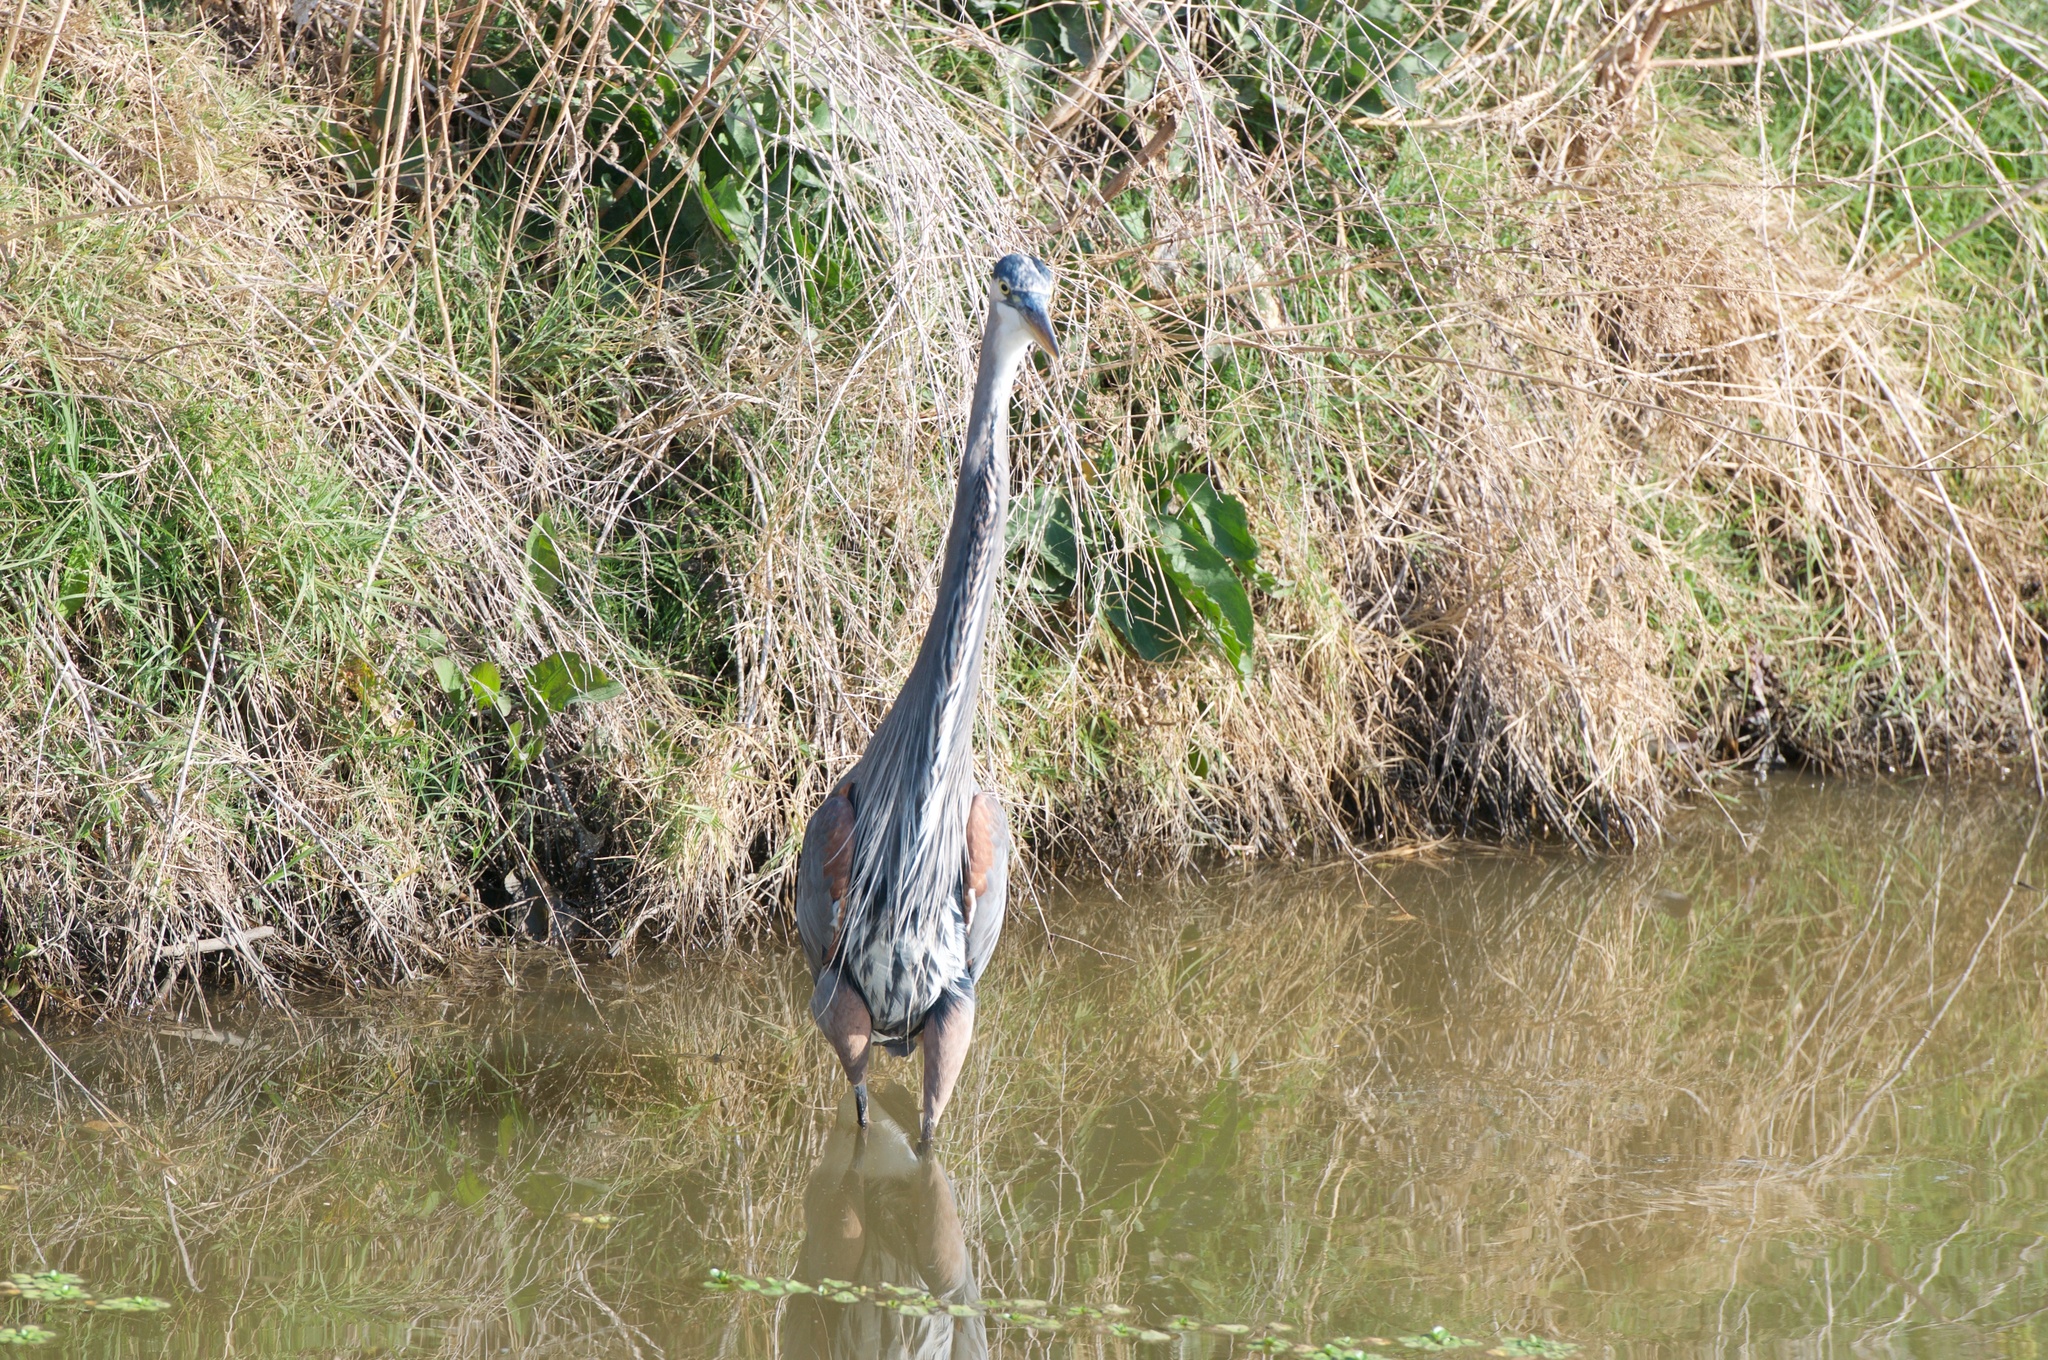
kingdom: Animalia
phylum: Chordata
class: Aves
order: Pelecaniformes
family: Ardeidae
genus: Ardea
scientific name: Ardea herodias
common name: Great blue heron
